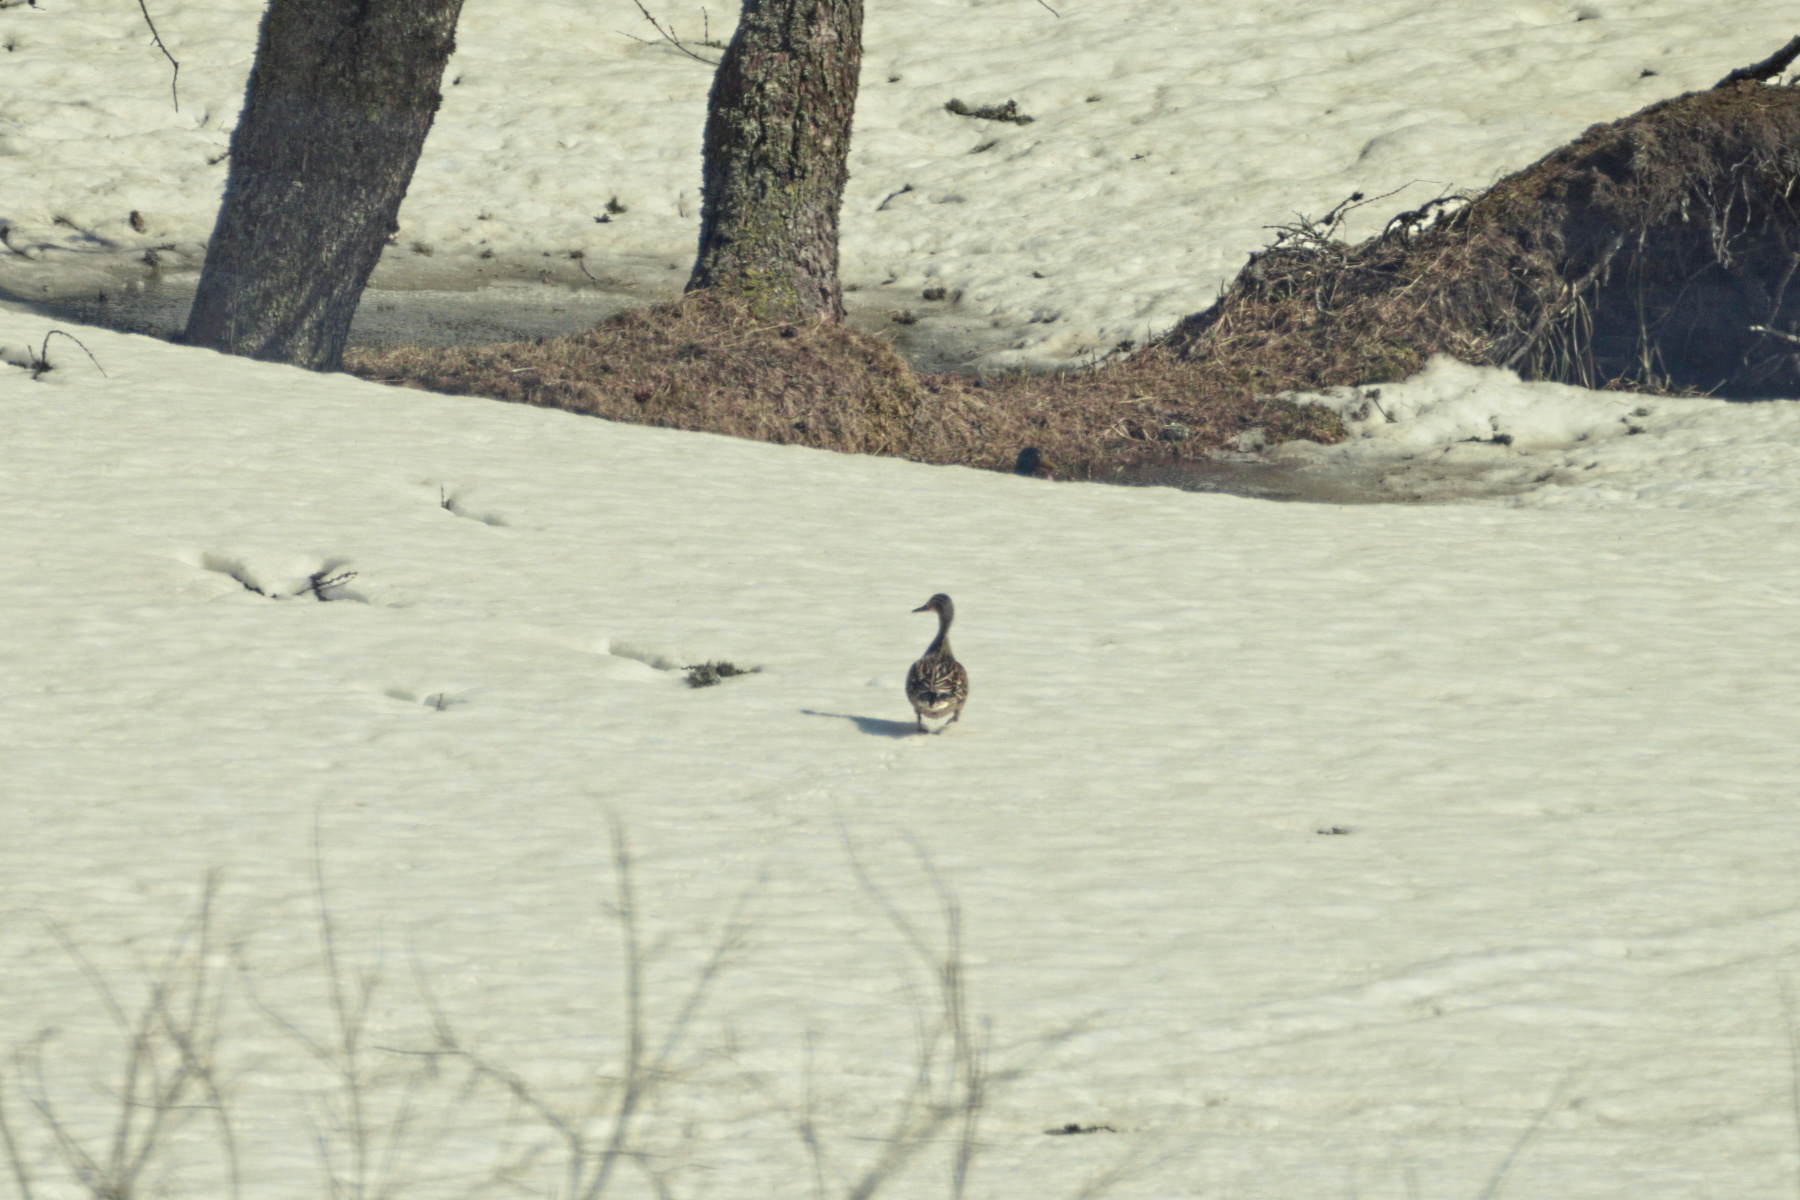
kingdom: Animalia
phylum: Chordata
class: Aves
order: Anseriformes
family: Anatidae
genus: Anas
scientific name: Anas platyrhynchos
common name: Mallard
